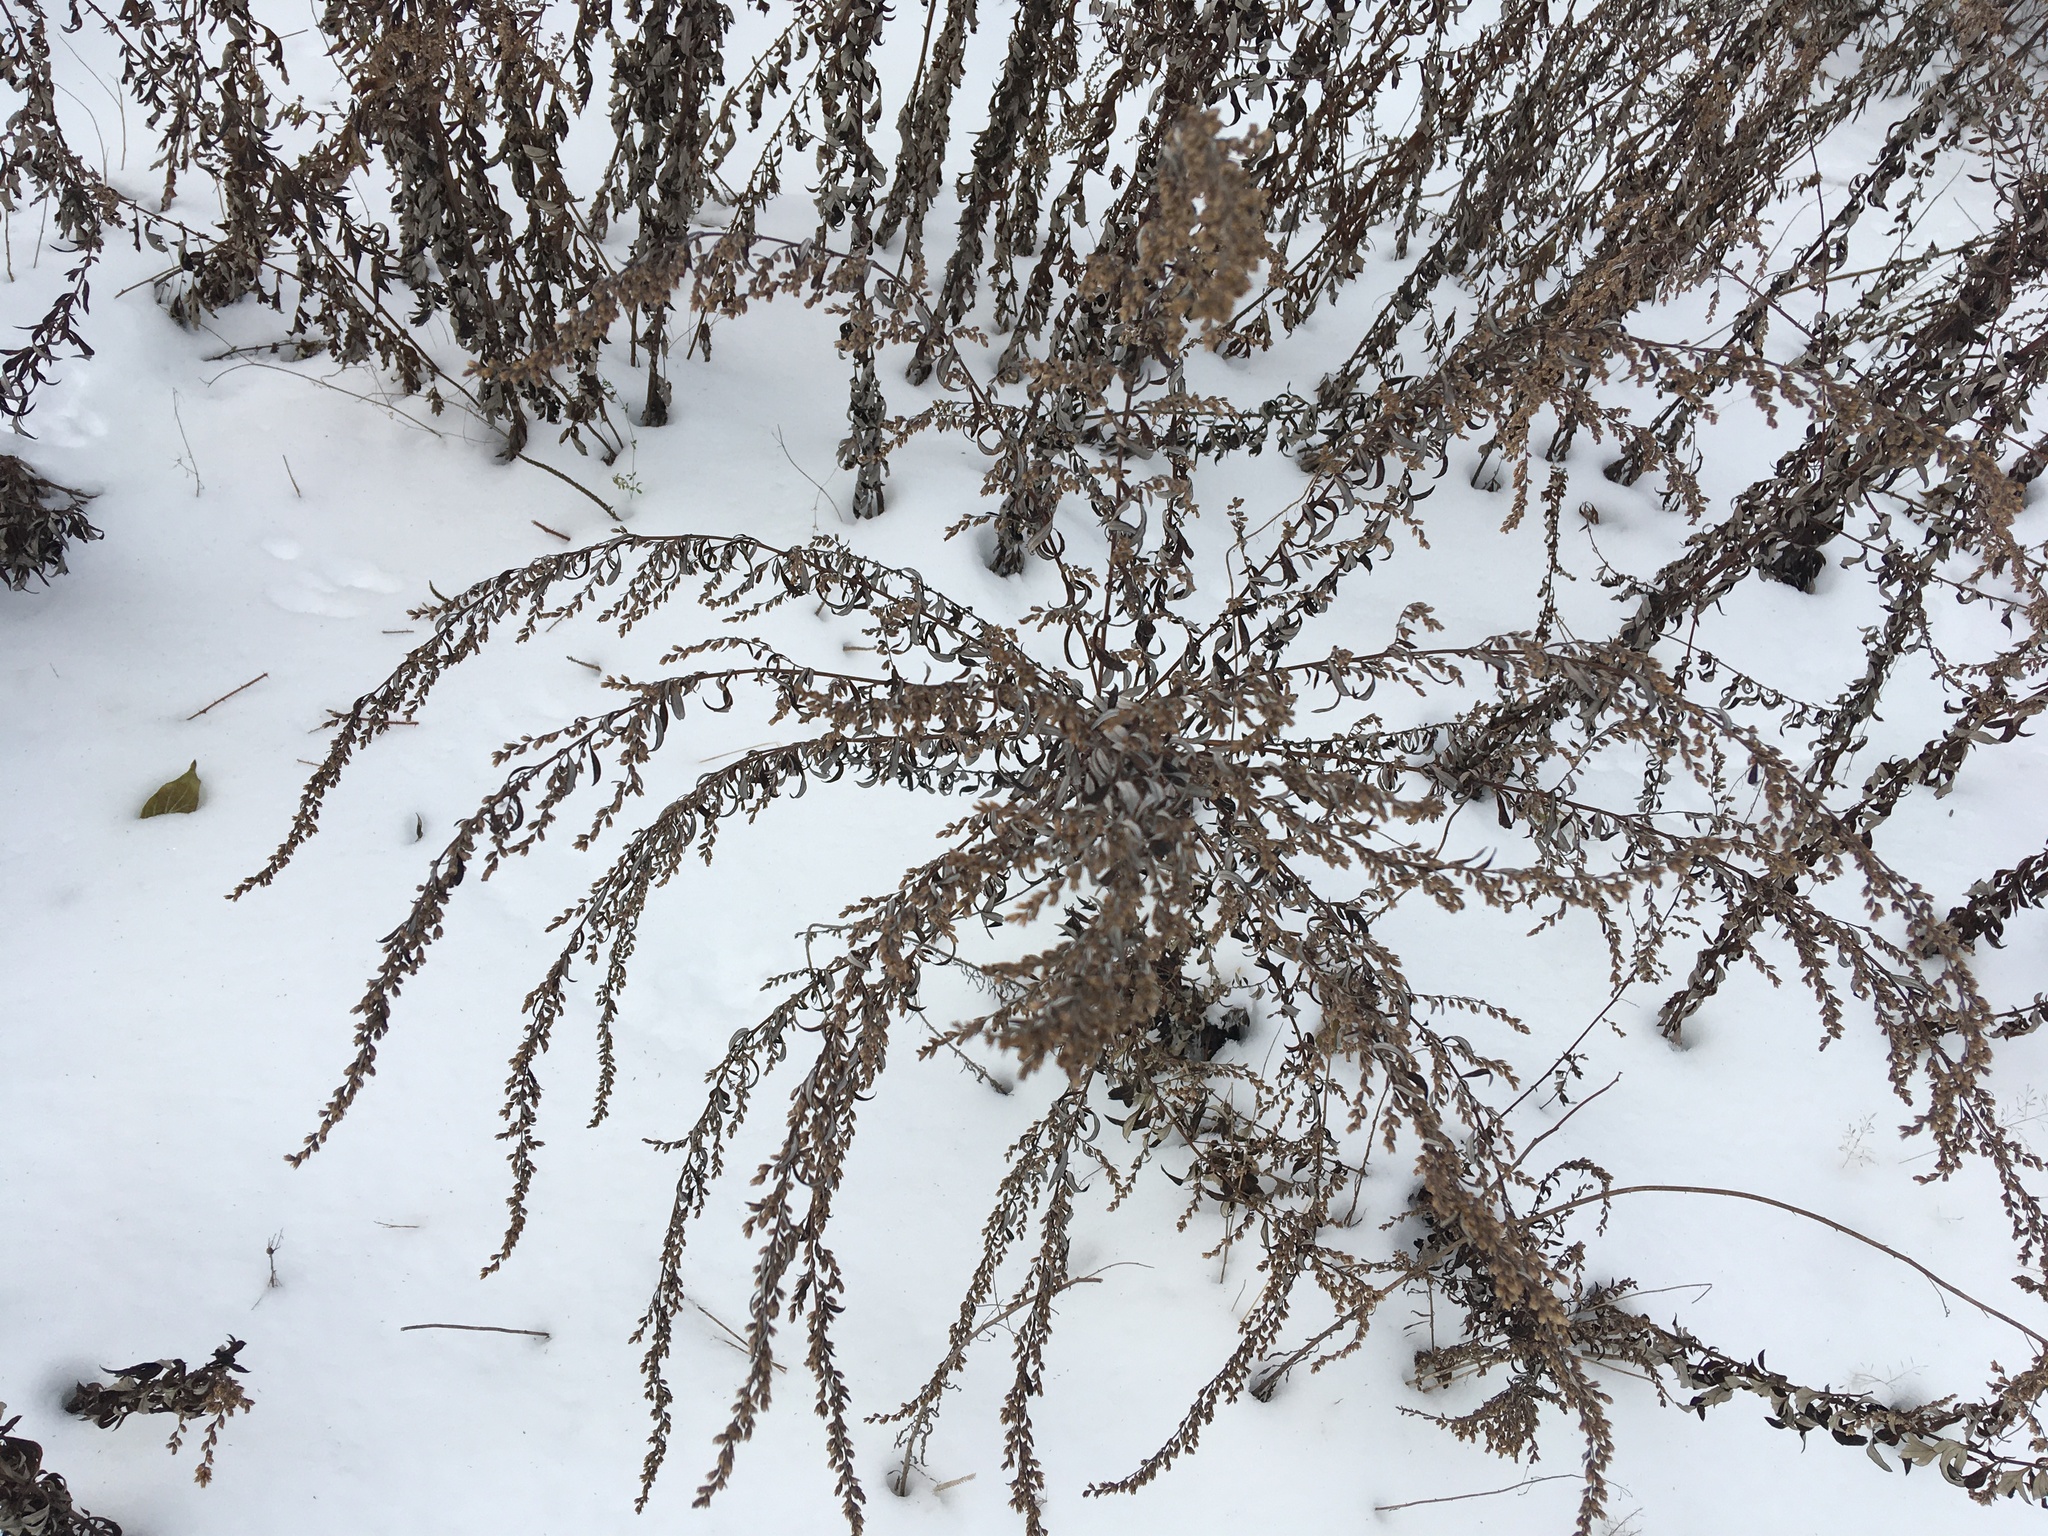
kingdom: Plantae
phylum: Tracheophyta
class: Magnoliopsida
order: Asterales
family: Asteraceae
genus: Artemisia
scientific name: Artemisia vulgaris
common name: Mugwort
